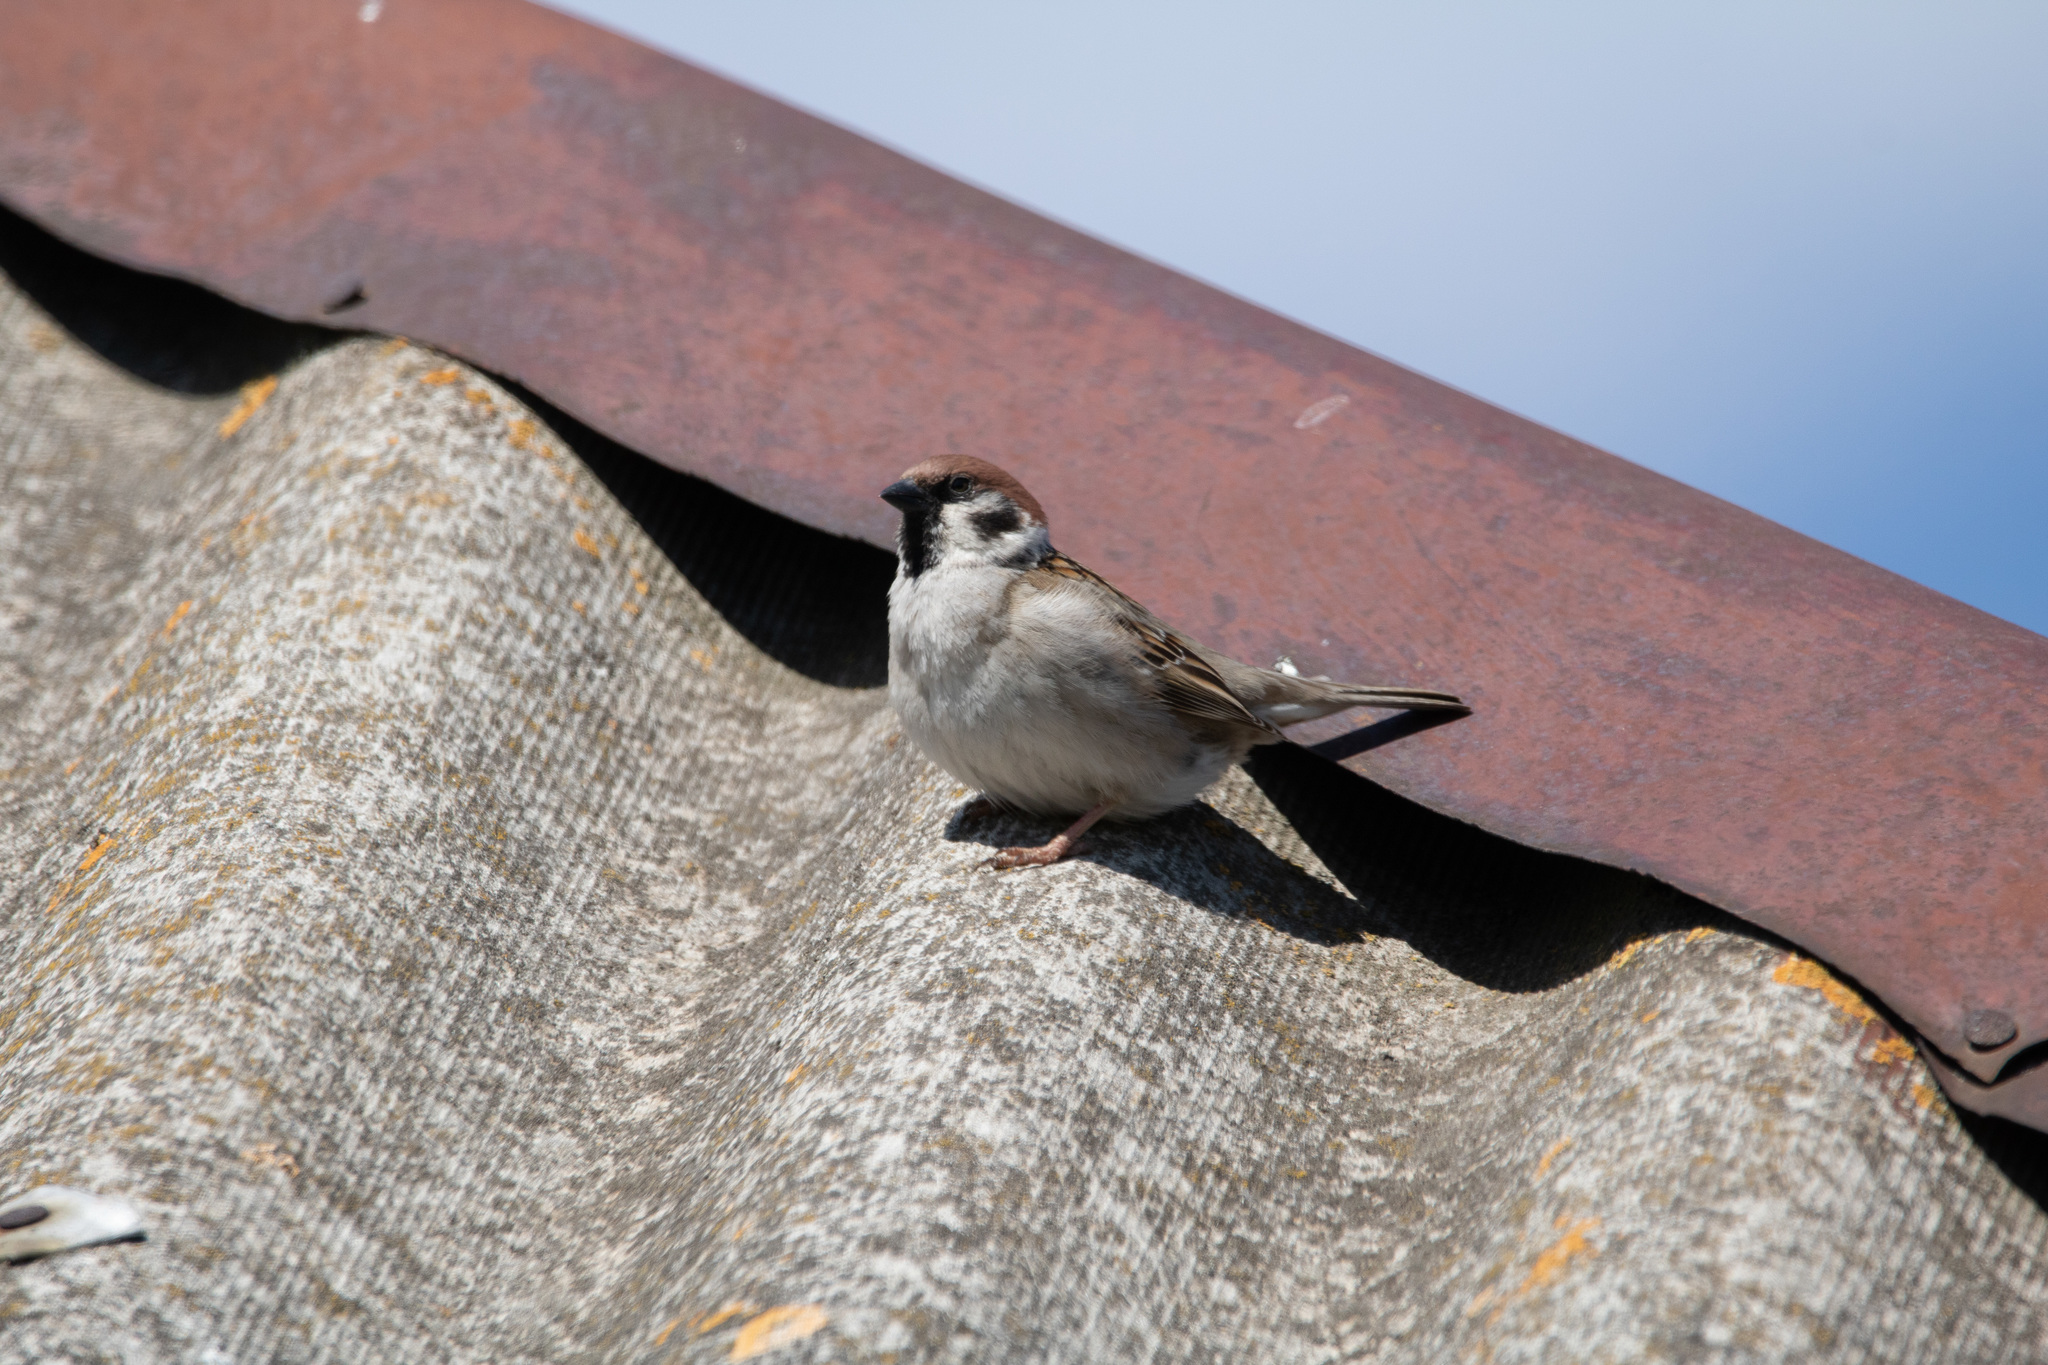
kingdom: Animalia
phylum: Chordata
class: Aves
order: Passeriformes
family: Passeridae
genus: Passer
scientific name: Passer montanus
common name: Eurasian tree sparrow
